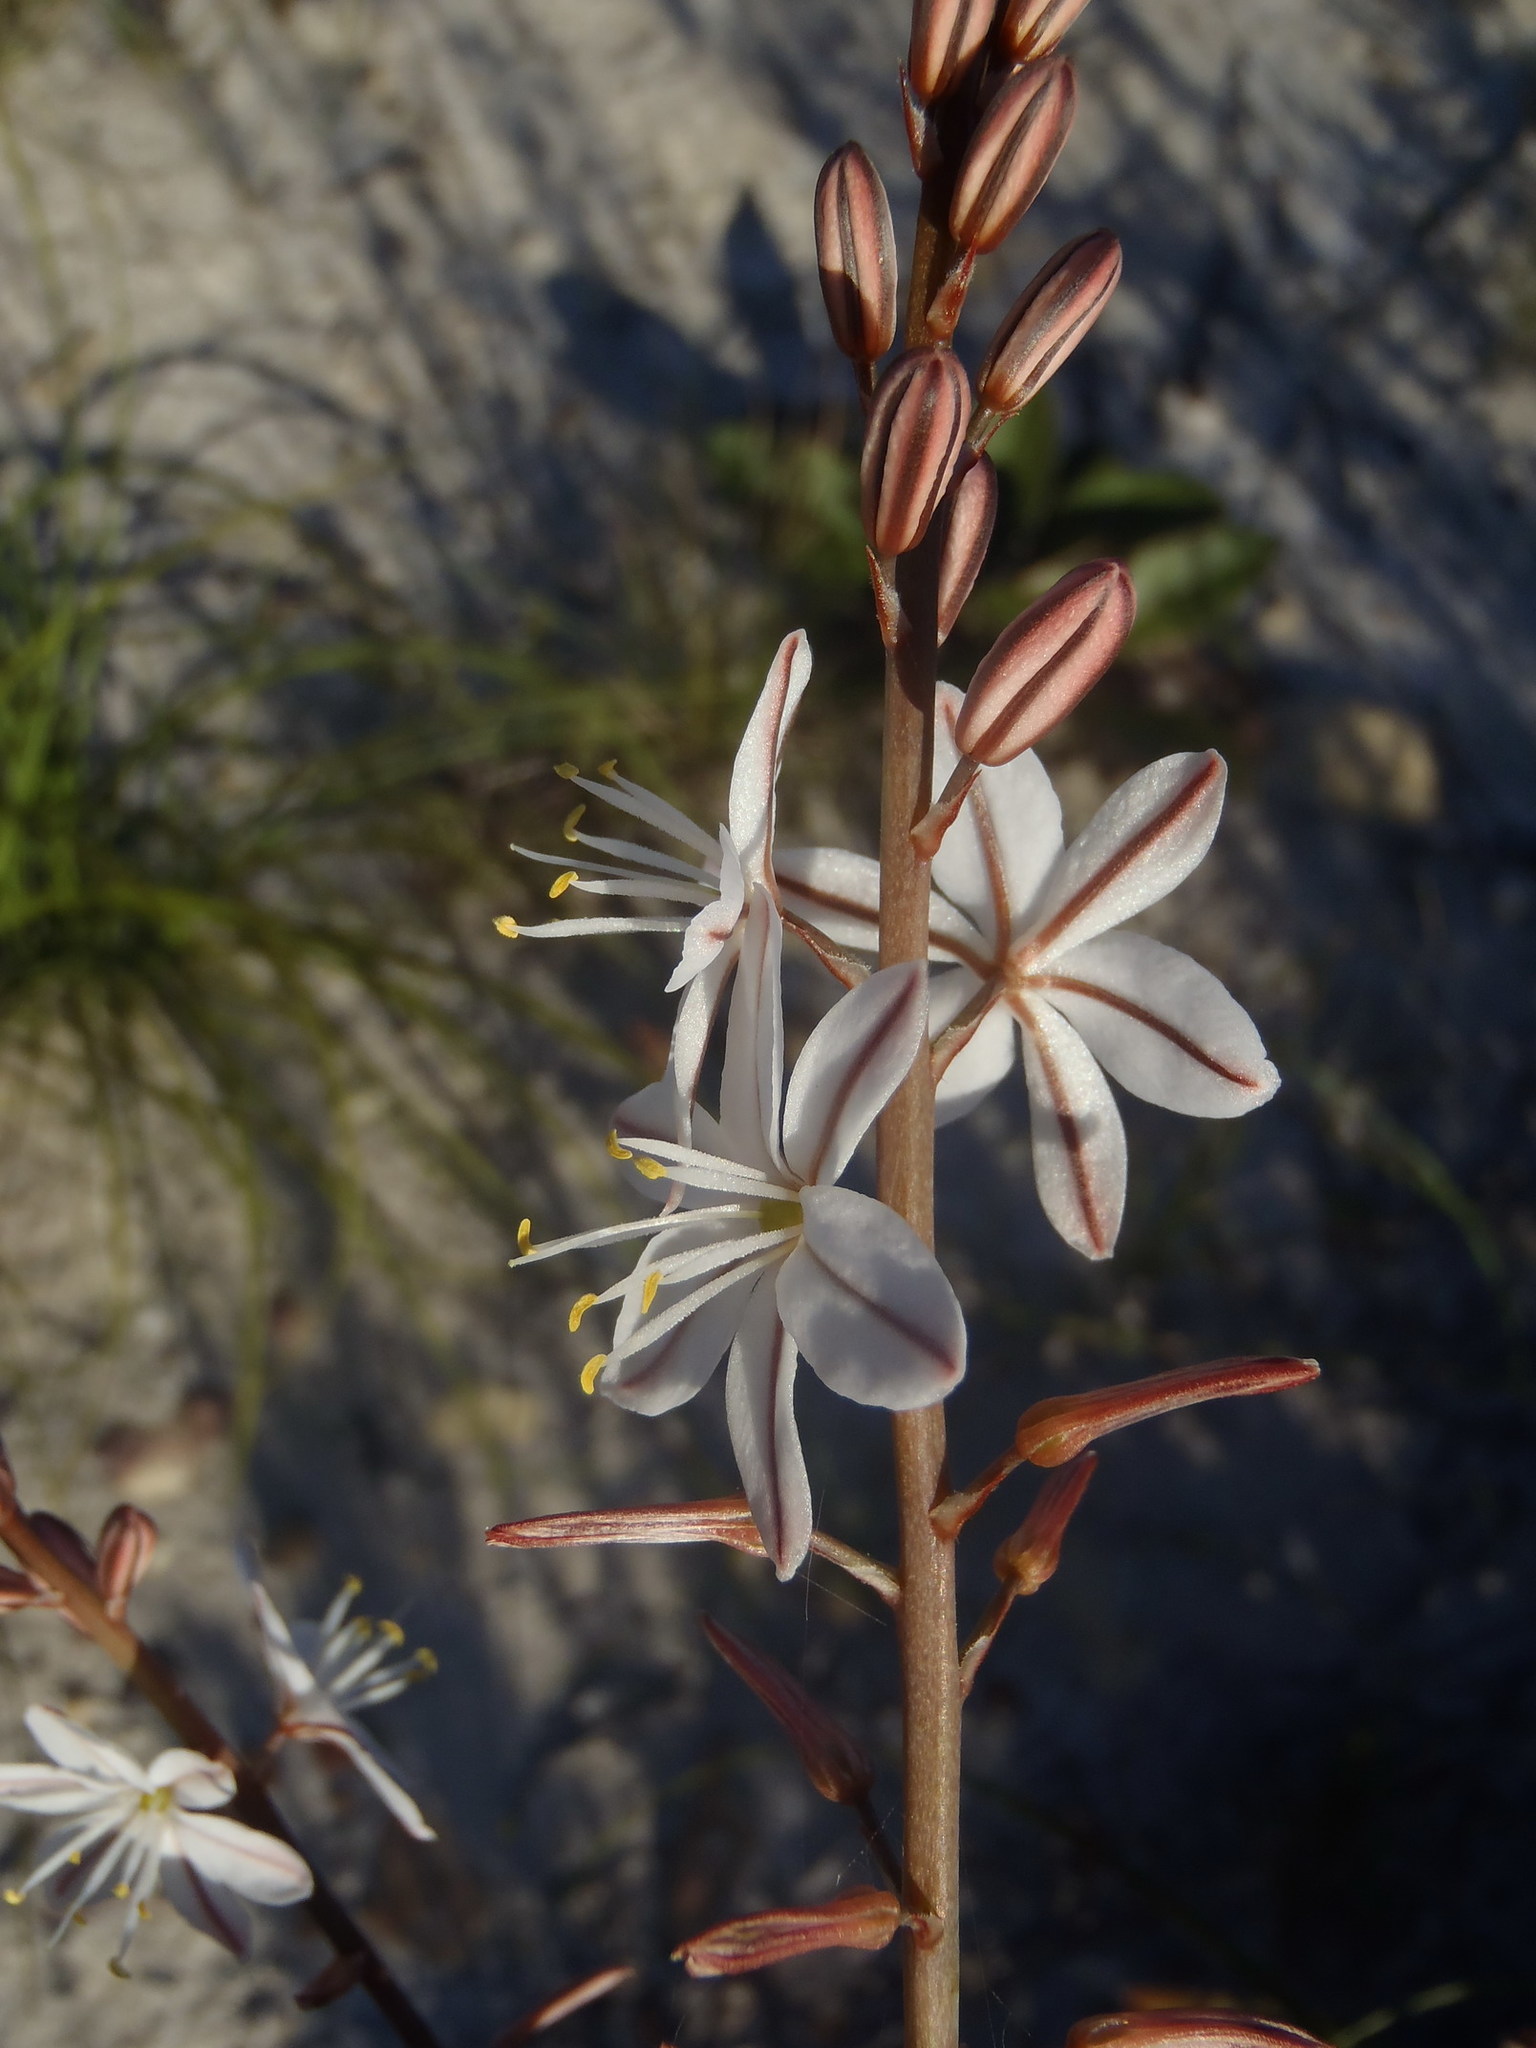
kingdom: Plantae
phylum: Tracheophyta
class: Liliopsida
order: Asparagales
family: Asphodelaceae
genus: Trachyandra
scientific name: Trachyandra hirsuta
